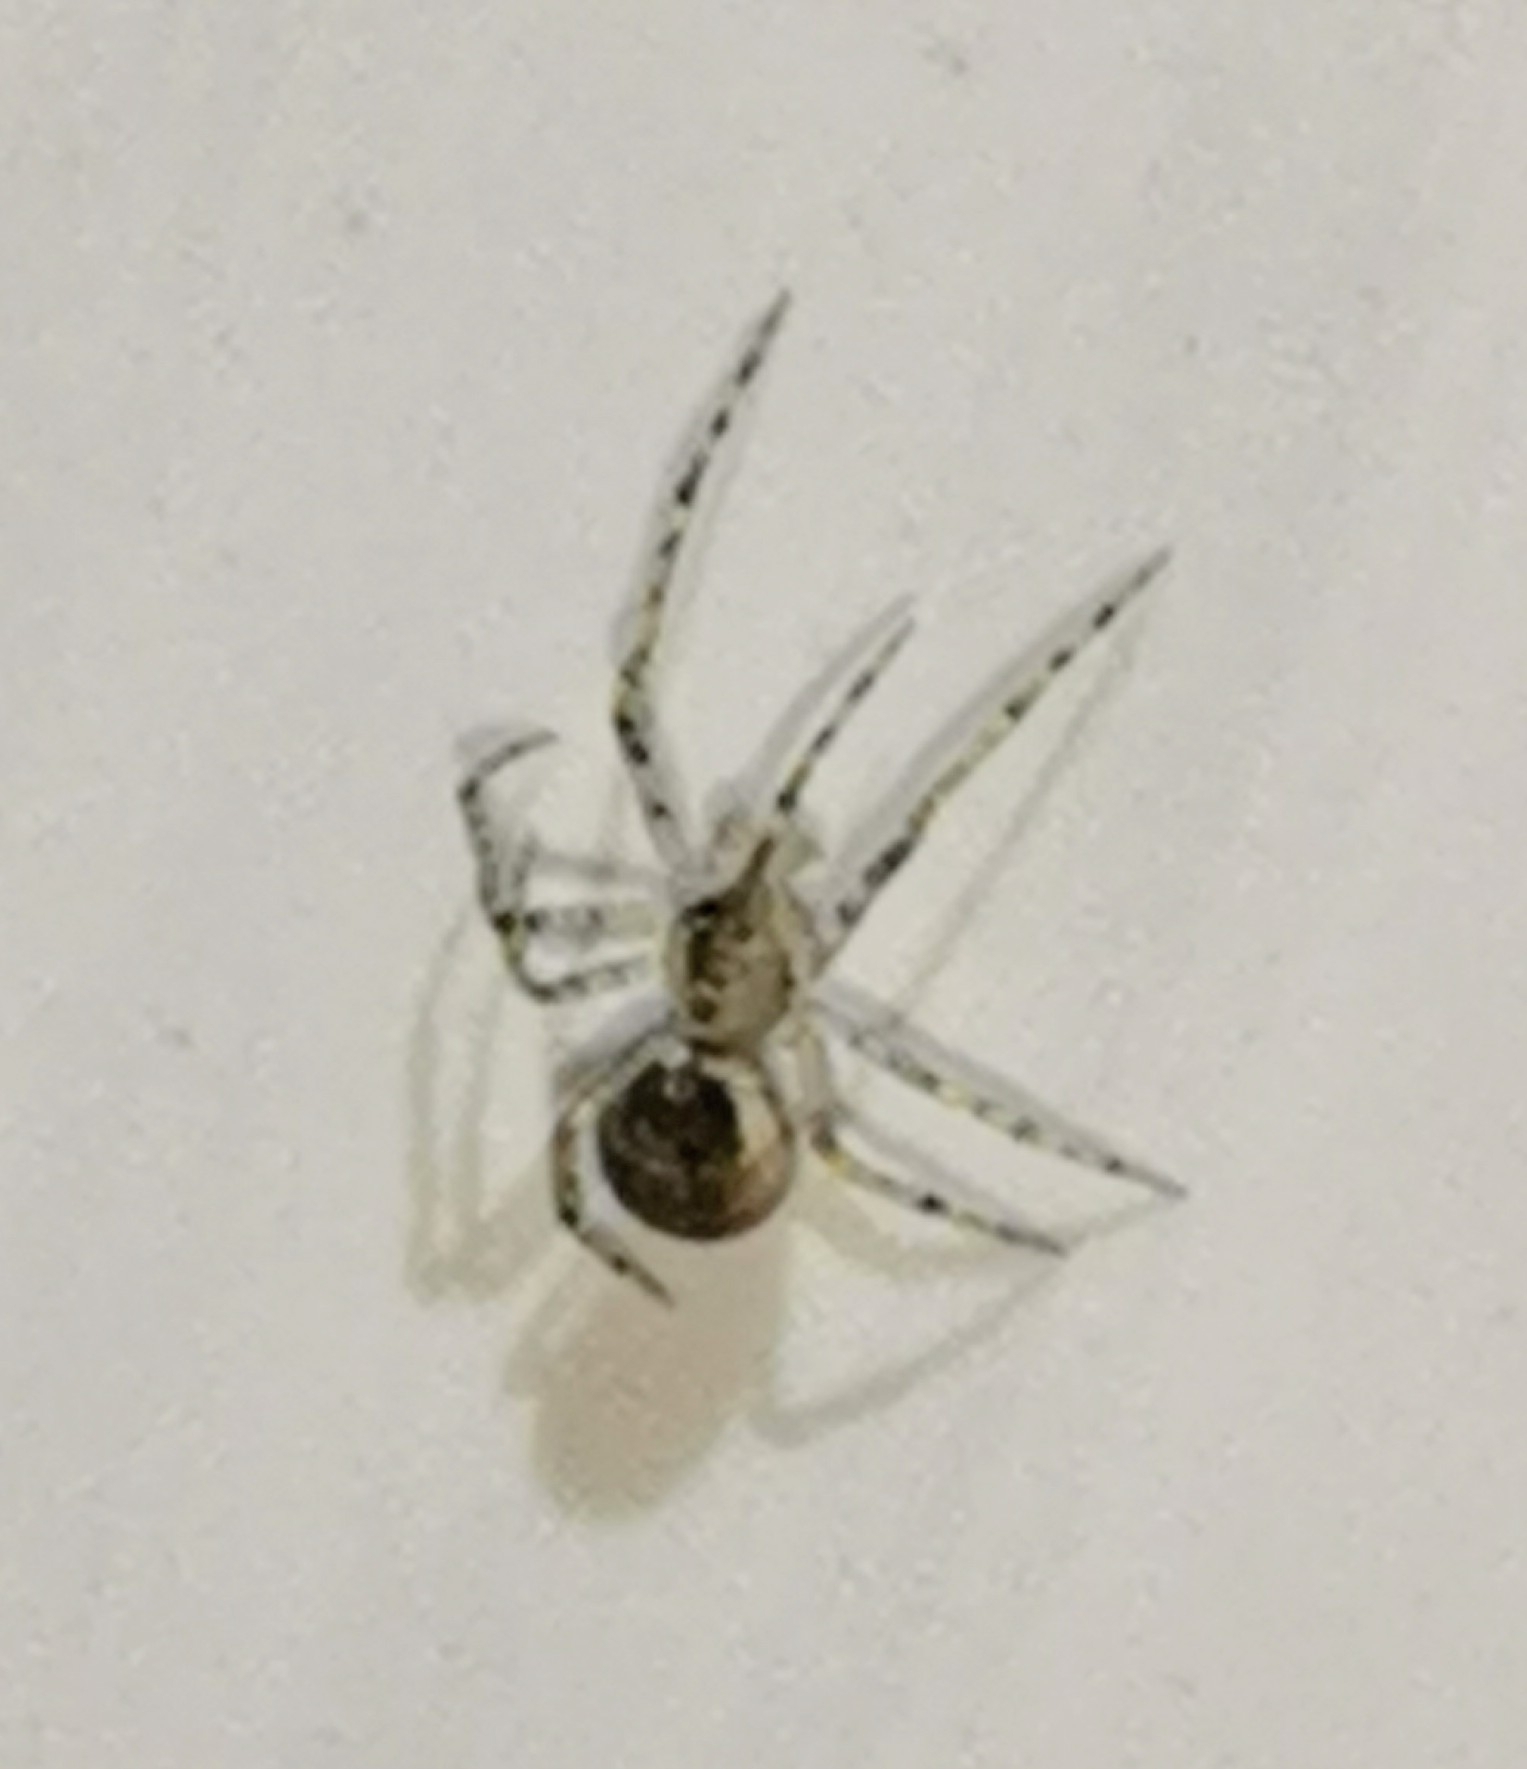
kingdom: Animalia
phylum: Arthropoda
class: Arachnida
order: Araneae
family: Theridiidae
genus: Platnickina
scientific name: Platnickina tincta
